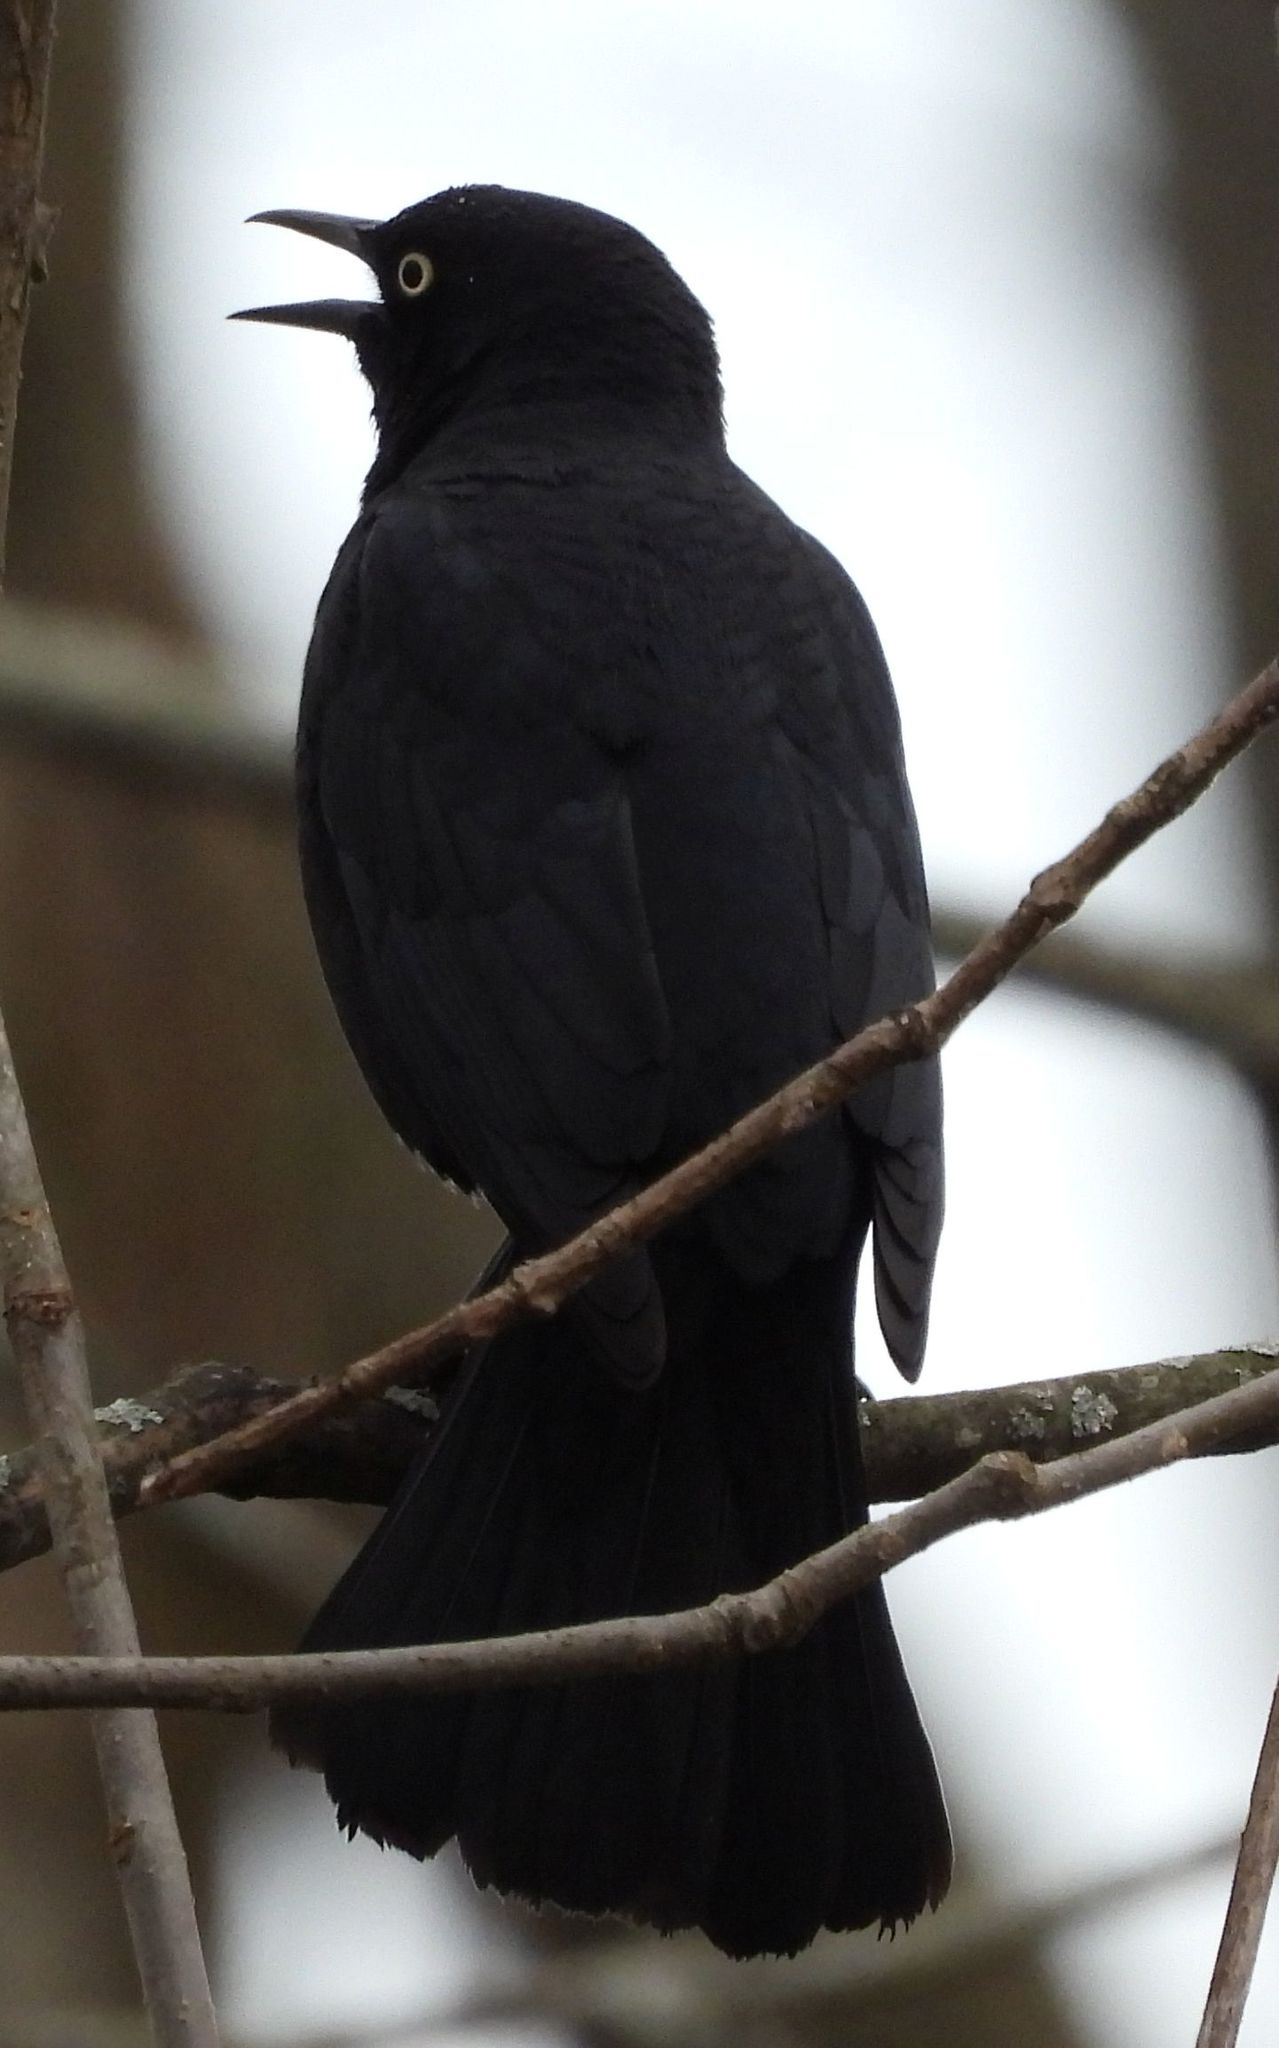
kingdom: Animalia
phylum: Chordata
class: Aves
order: Passeriformes
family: Icteridae
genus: Euphagus
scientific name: Euphagus carolinus
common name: Rusty blackbird
